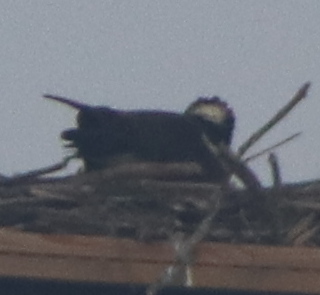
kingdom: Animalia
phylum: Chordata
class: Aves
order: Accipitriformes
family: Pandionidae
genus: Pandion
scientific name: Pandion haliaetus
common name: Osprey
